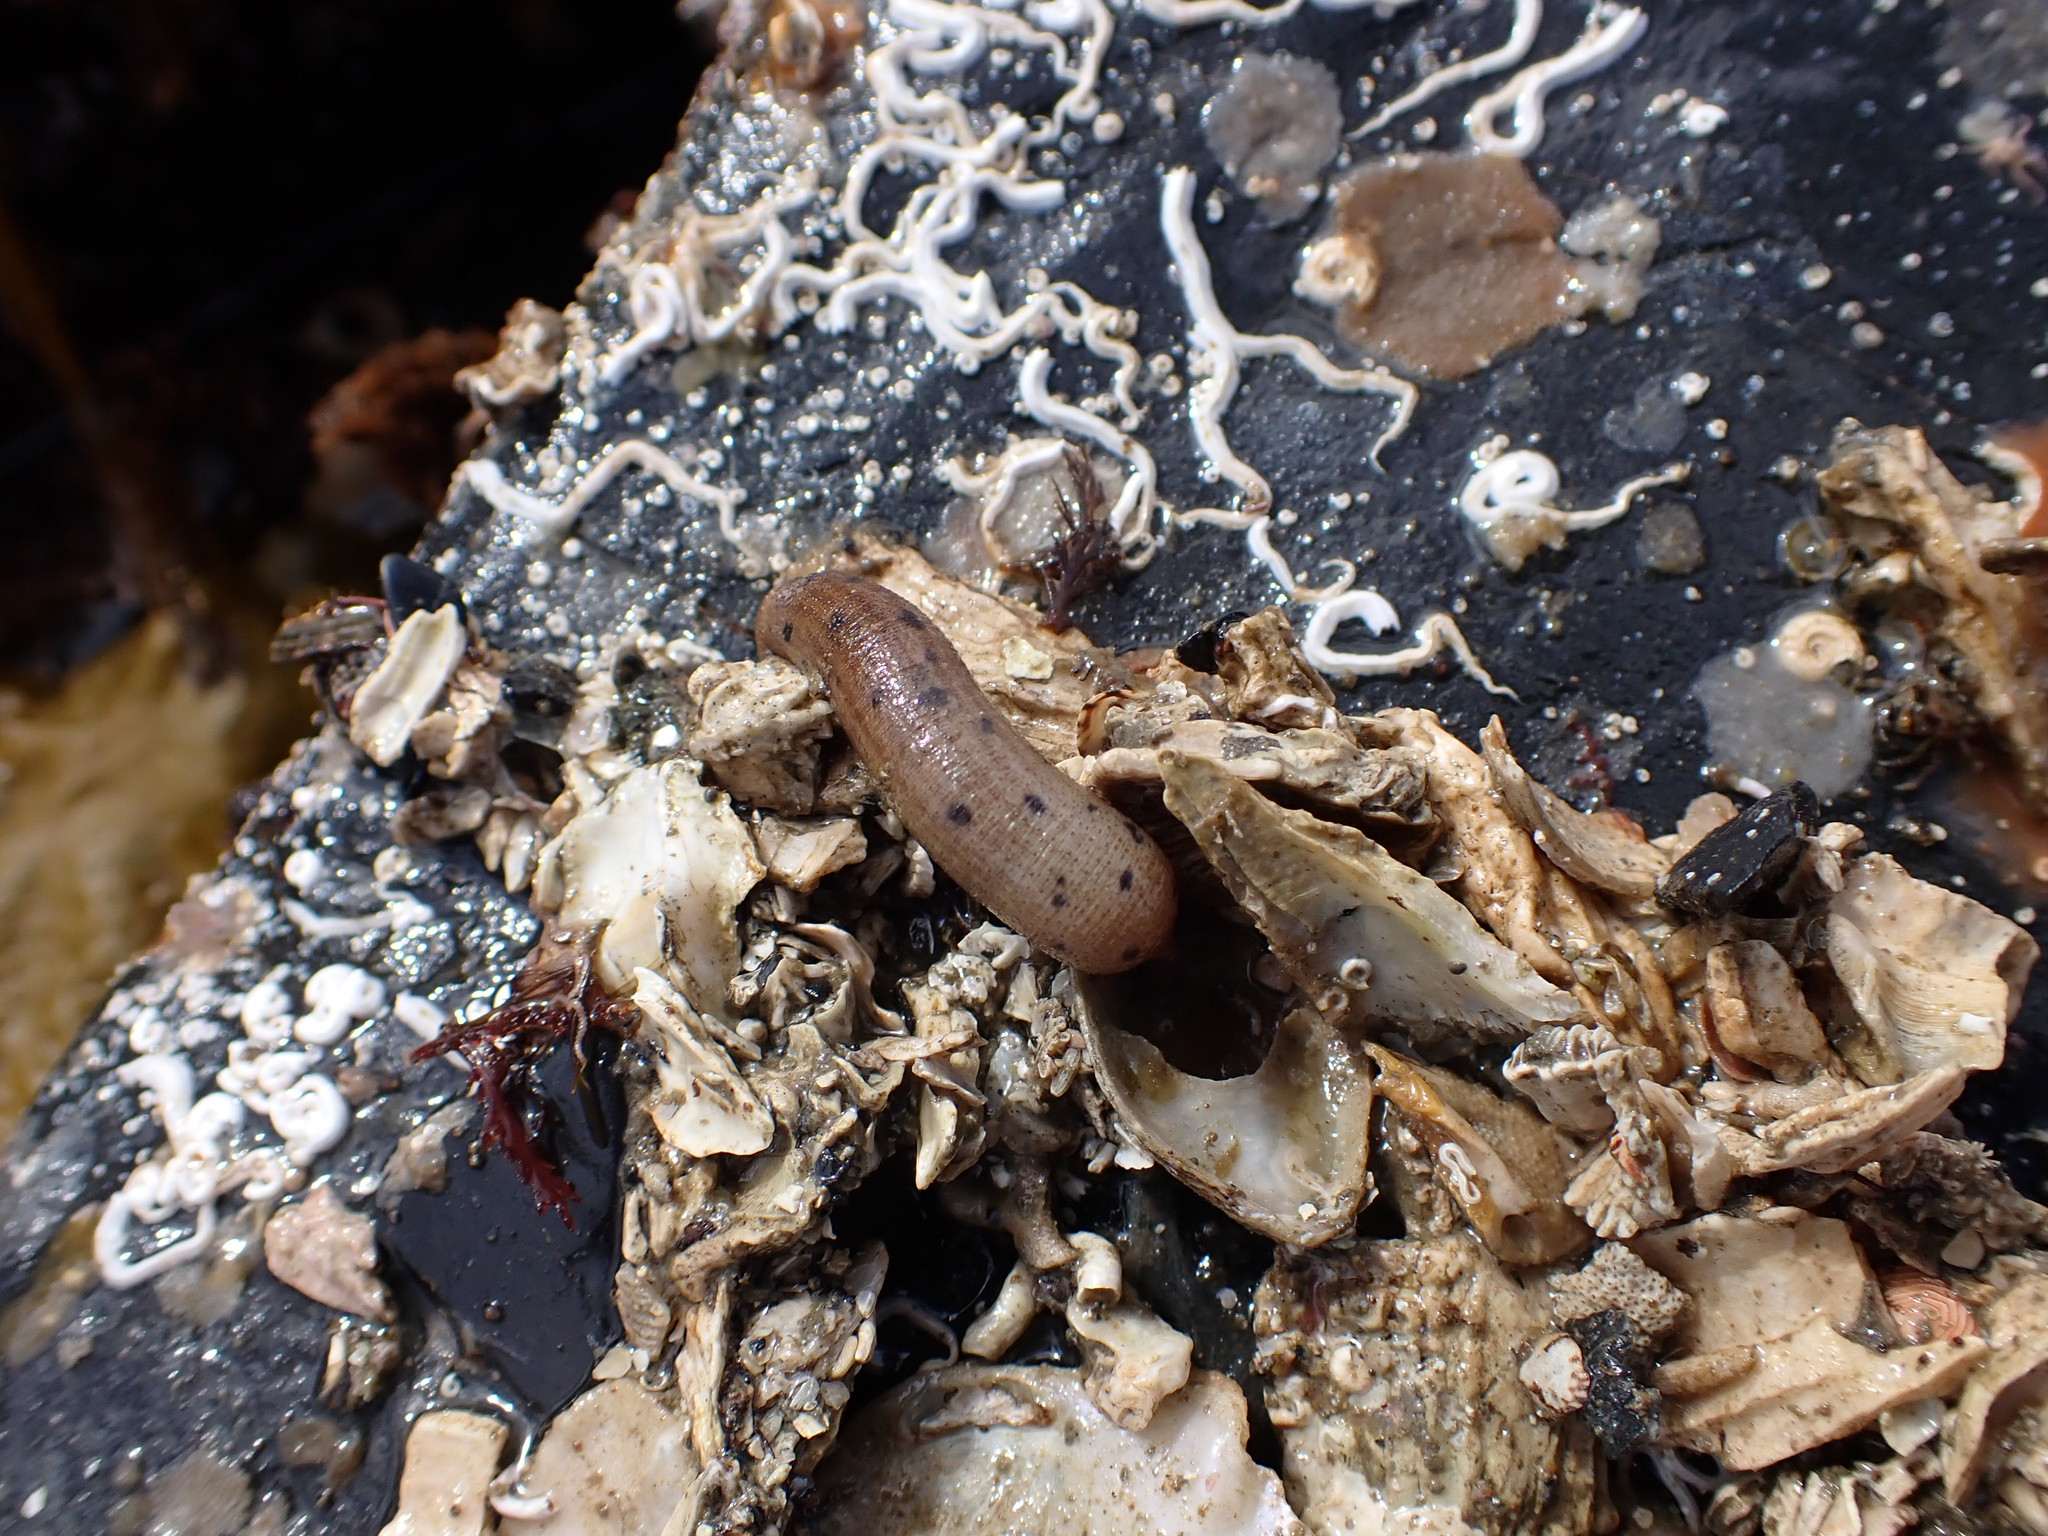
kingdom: Animalia
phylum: Sipuncula
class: Phascolosomatidea
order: Phascolosomatiformes
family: Phascolosomatidae
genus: Phascolosoma
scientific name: Phascolosoma agassizii
